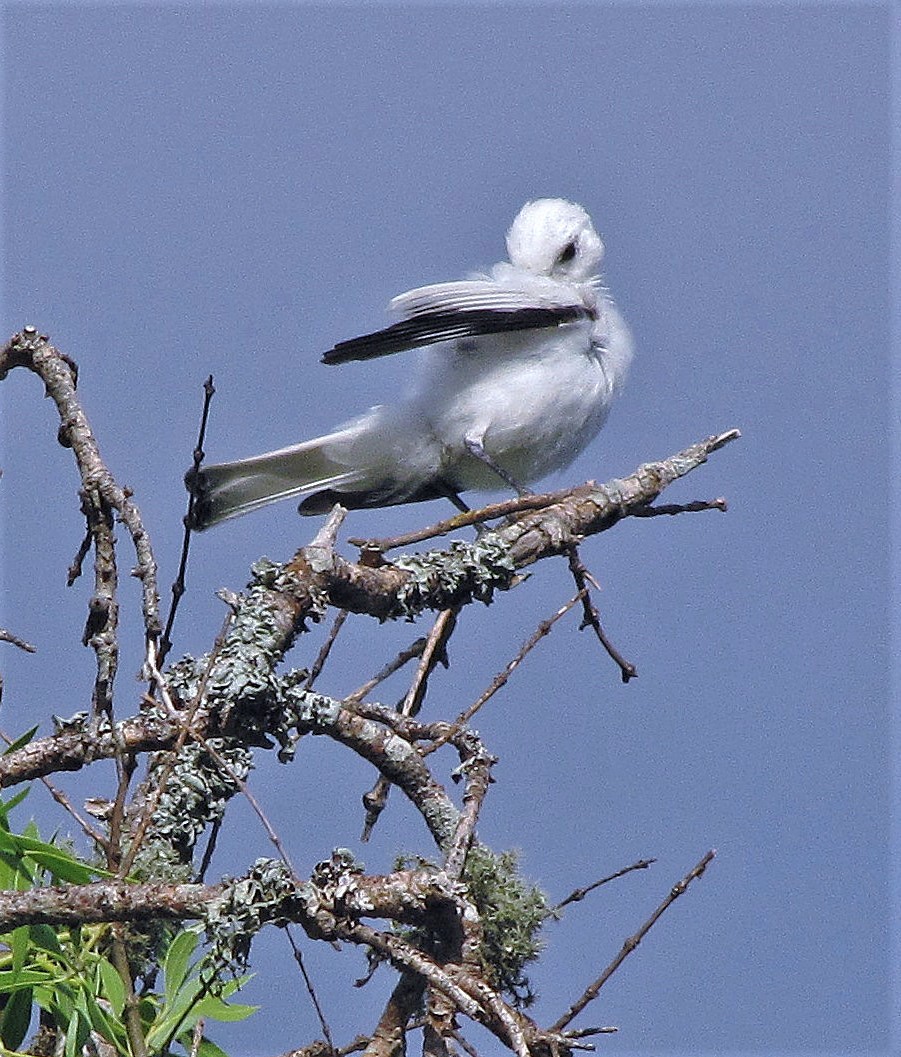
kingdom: Animalia
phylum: Chordata
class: Aves
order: Passeriformes
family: Tyrannidae
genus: Xolmis
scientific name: Xolmis irupero
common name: White monjita
